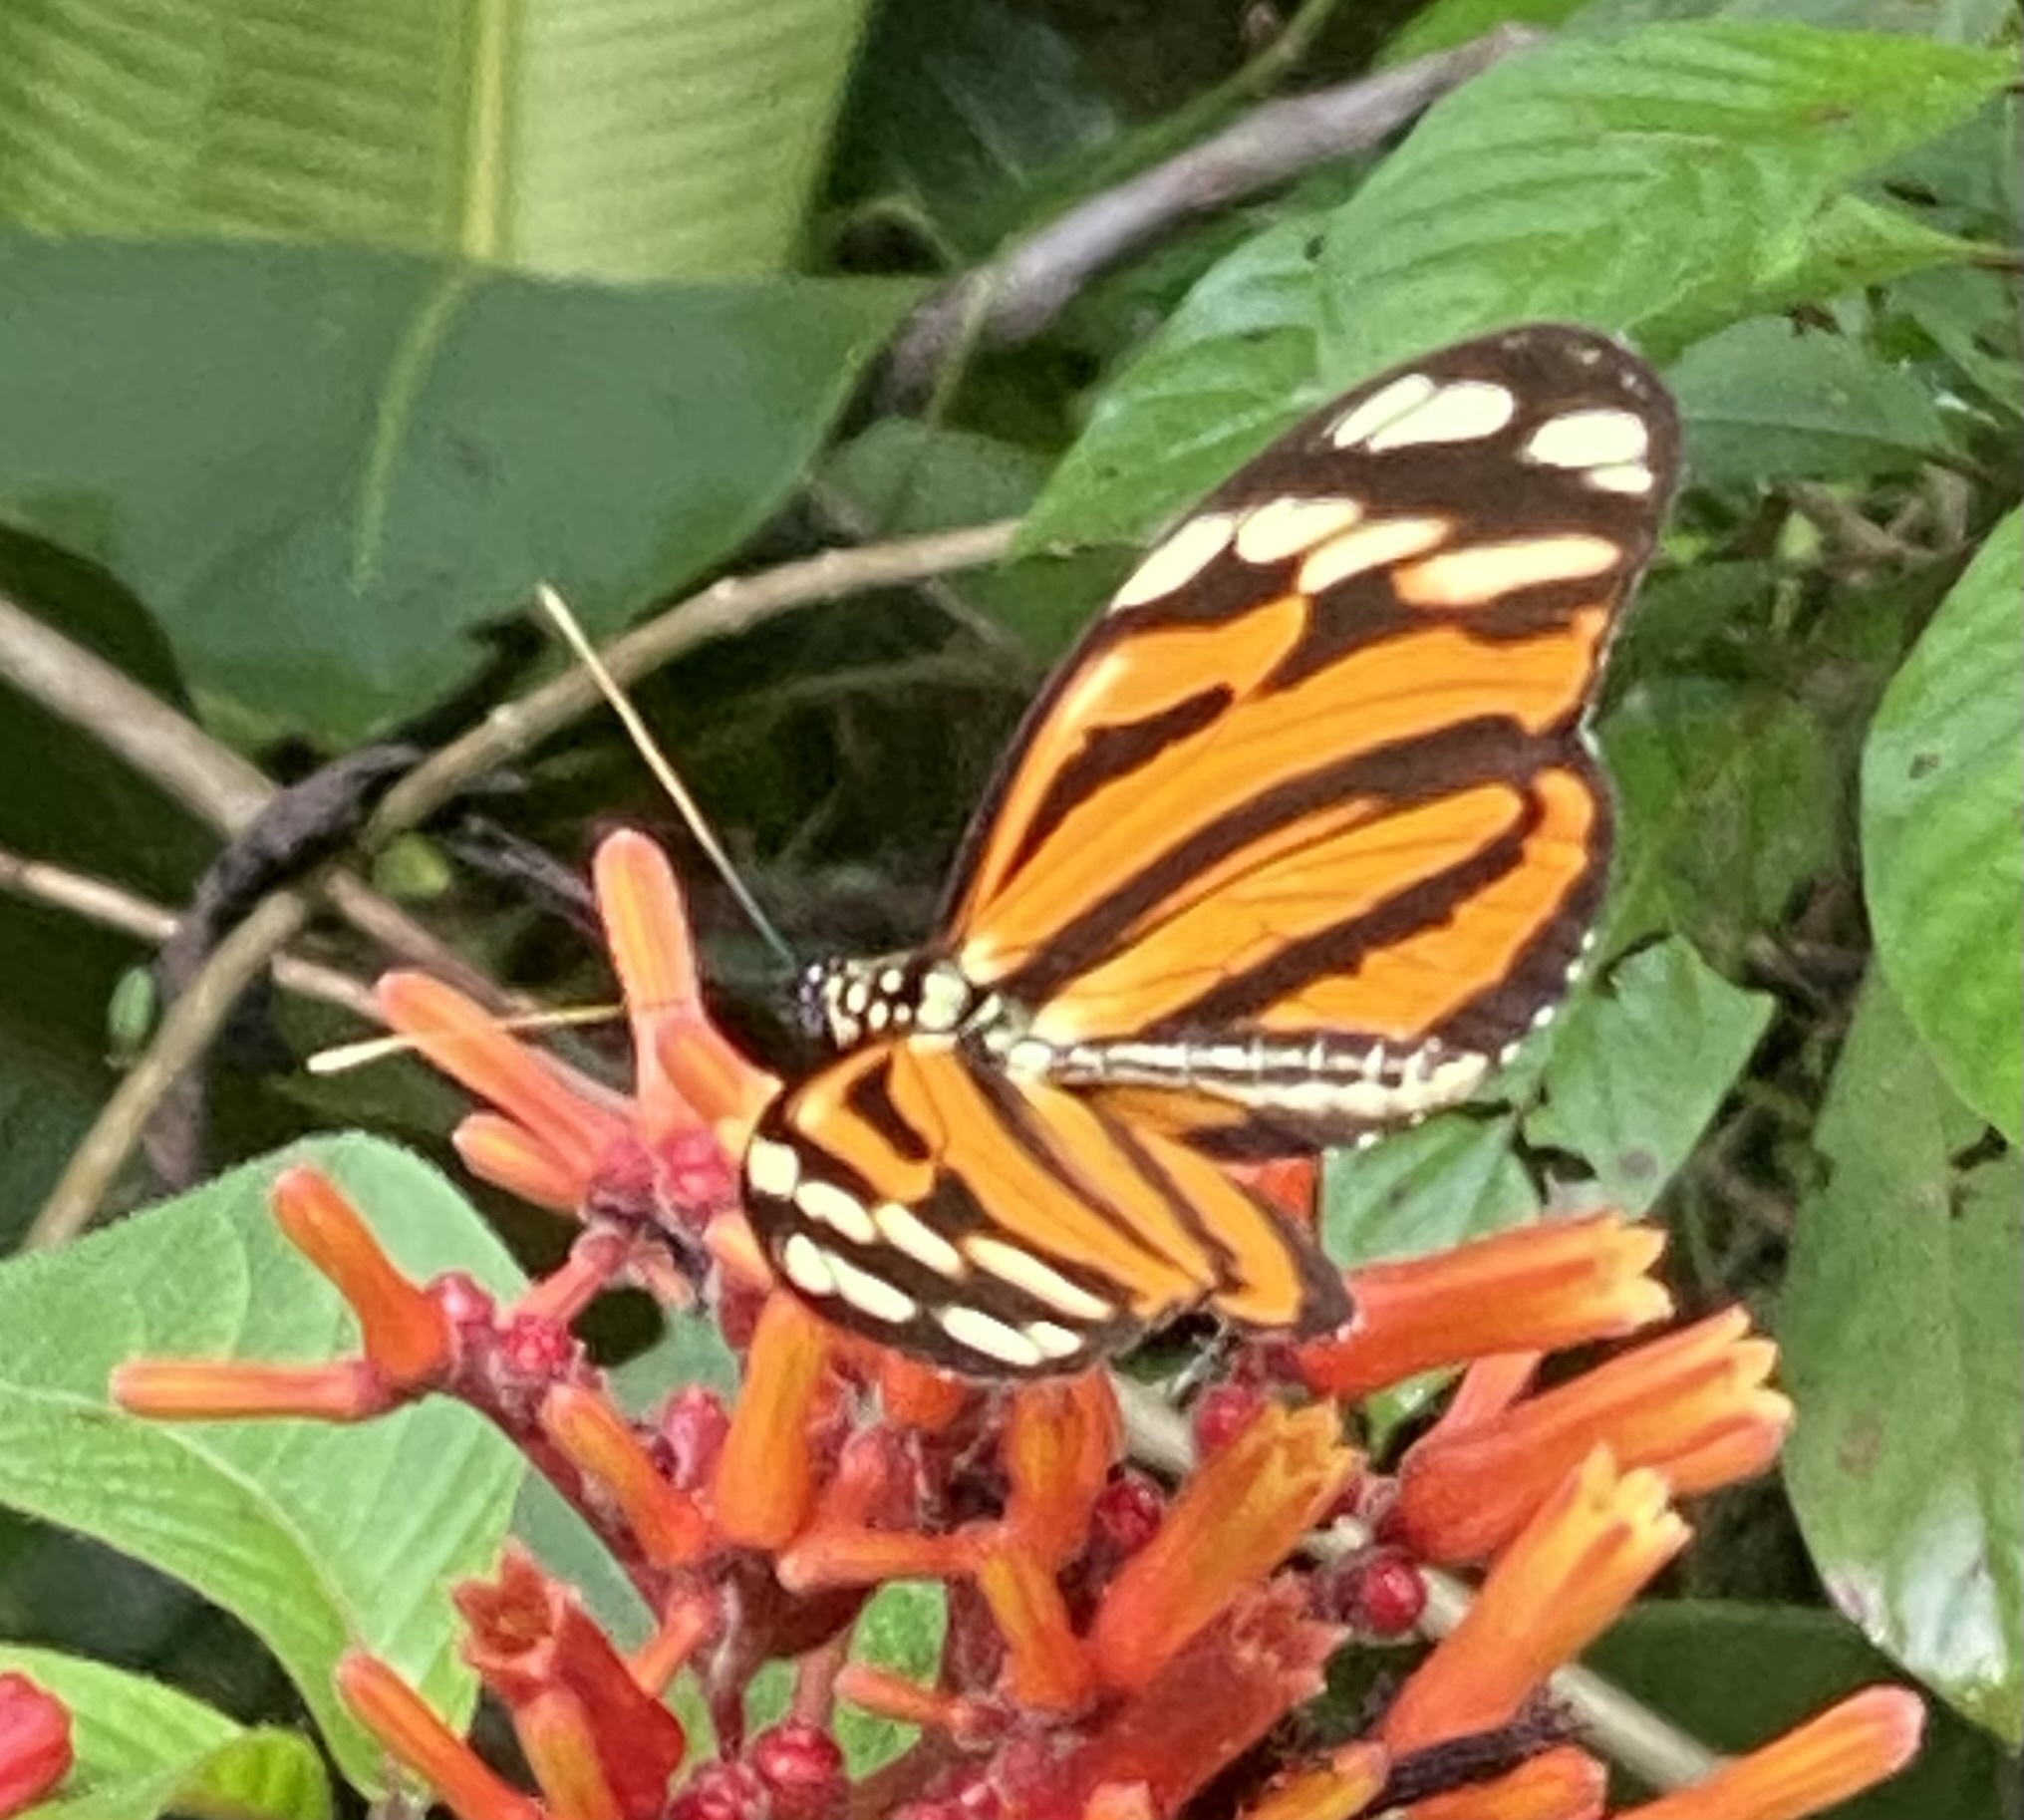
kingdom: Animalia
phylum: Arthropoda
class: Insecta
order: Lepidoptera
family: Nymphalidae
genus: Heliconius
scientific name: Heliconius ismenius
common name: Ismenius tiger
